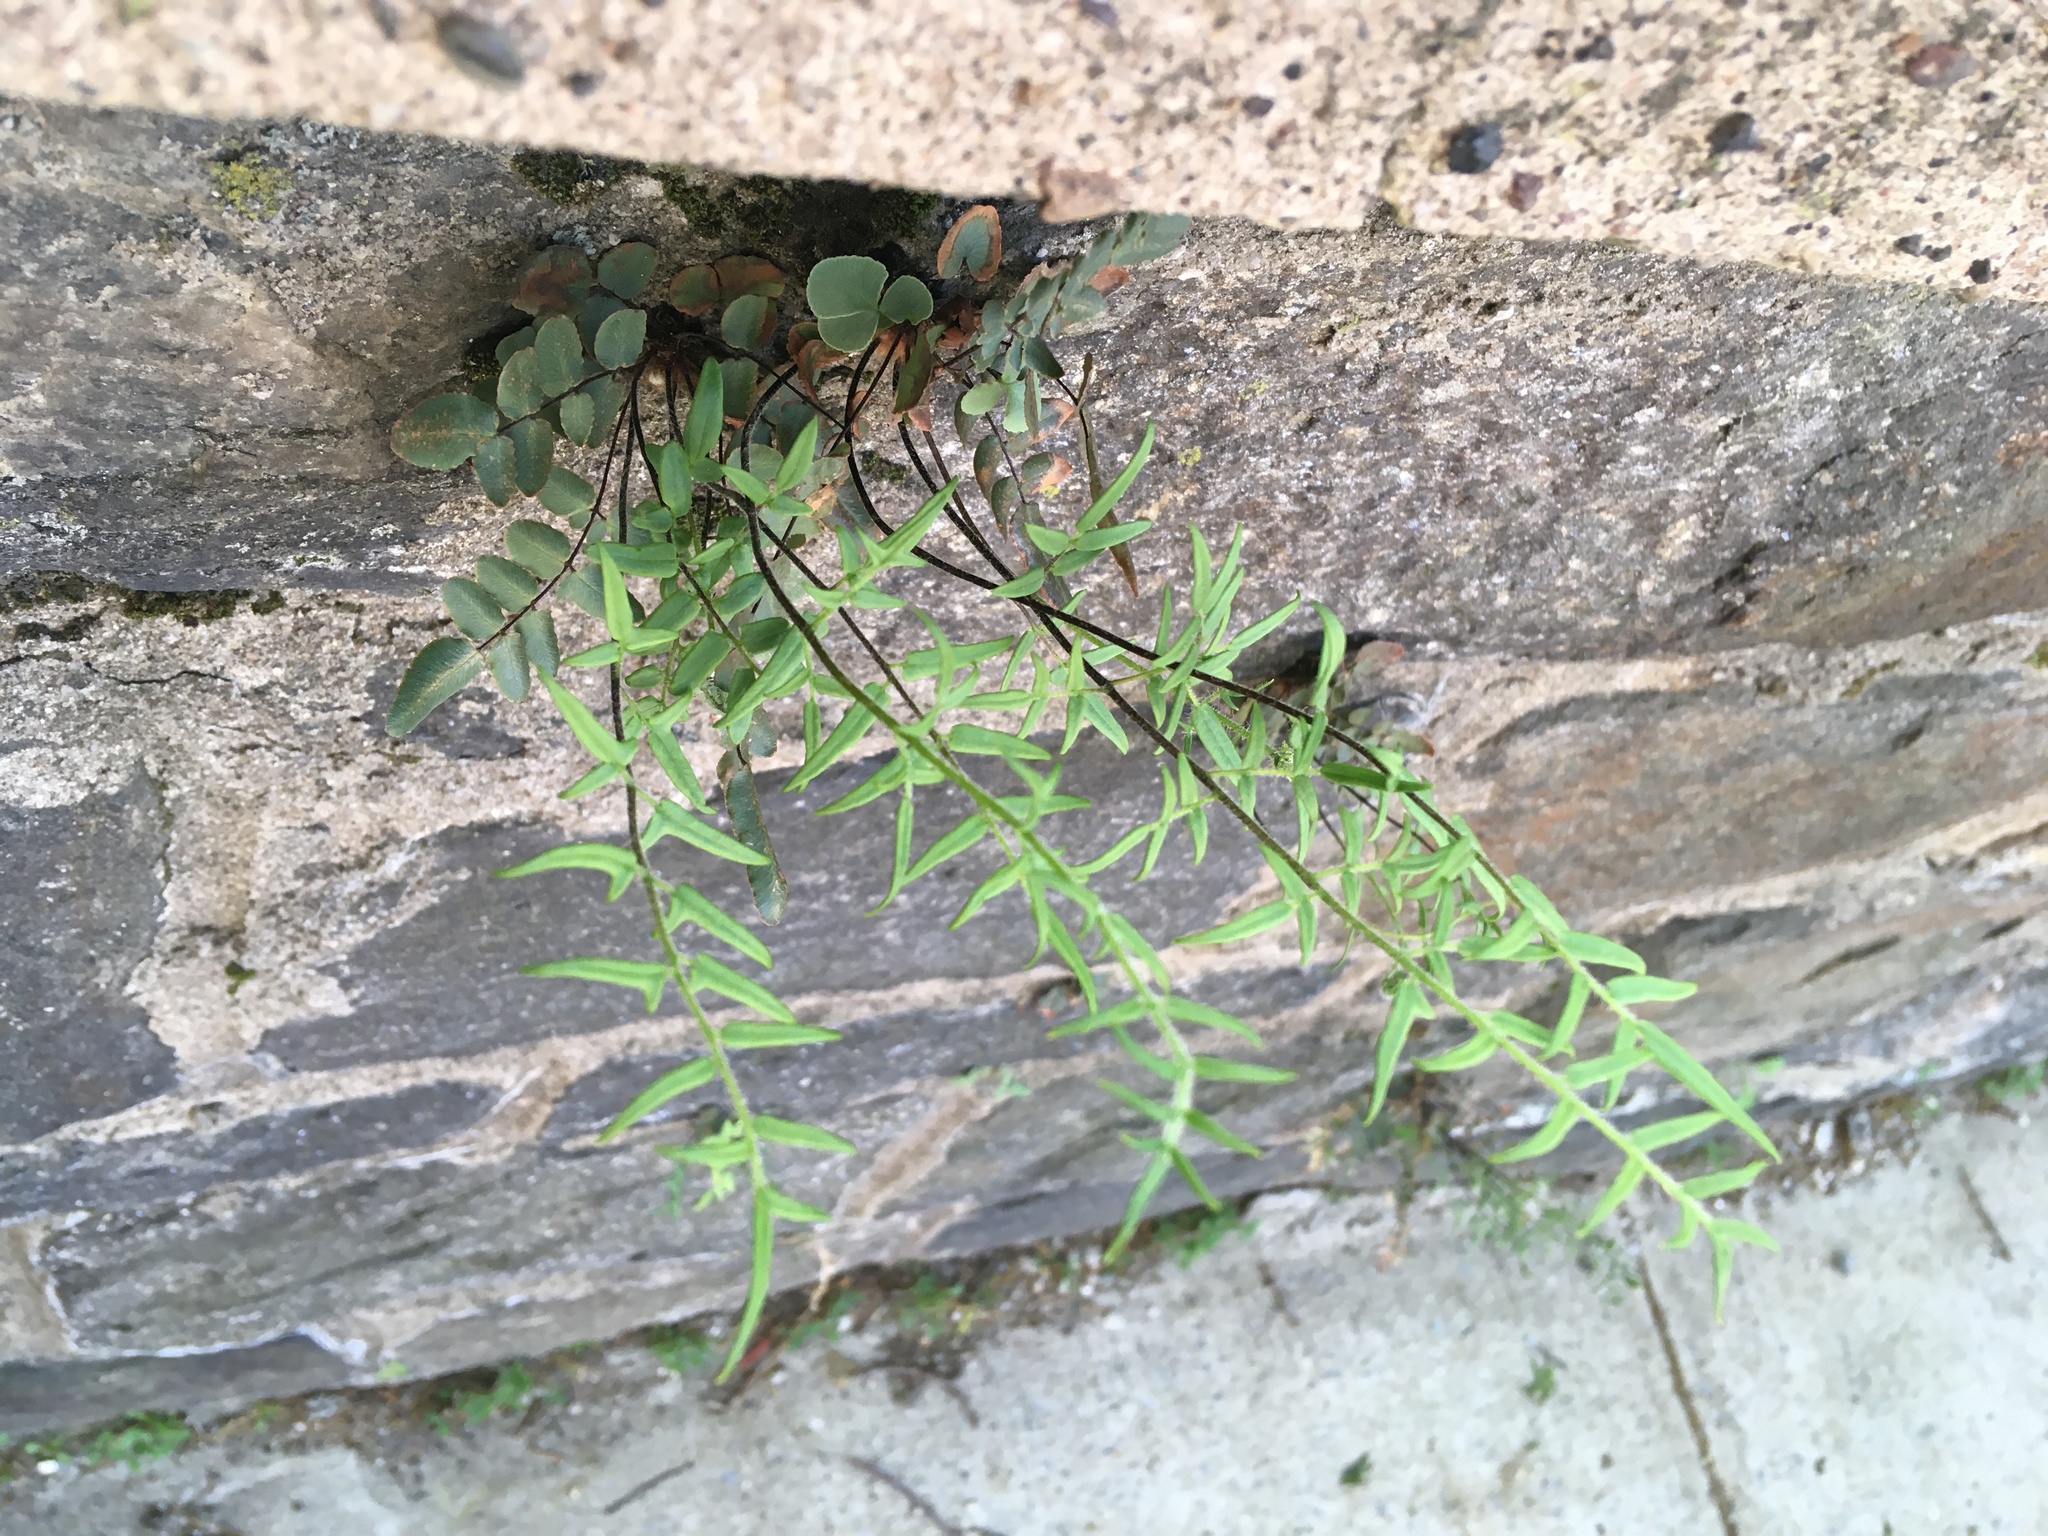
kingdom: Plantae
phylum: Tracheophyta
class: Polypodiopsida
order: Polypodiales
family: Pteridaceae
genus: Pellaea
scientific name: Pellaea atropurpurea
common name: Hairy cliffbrake
